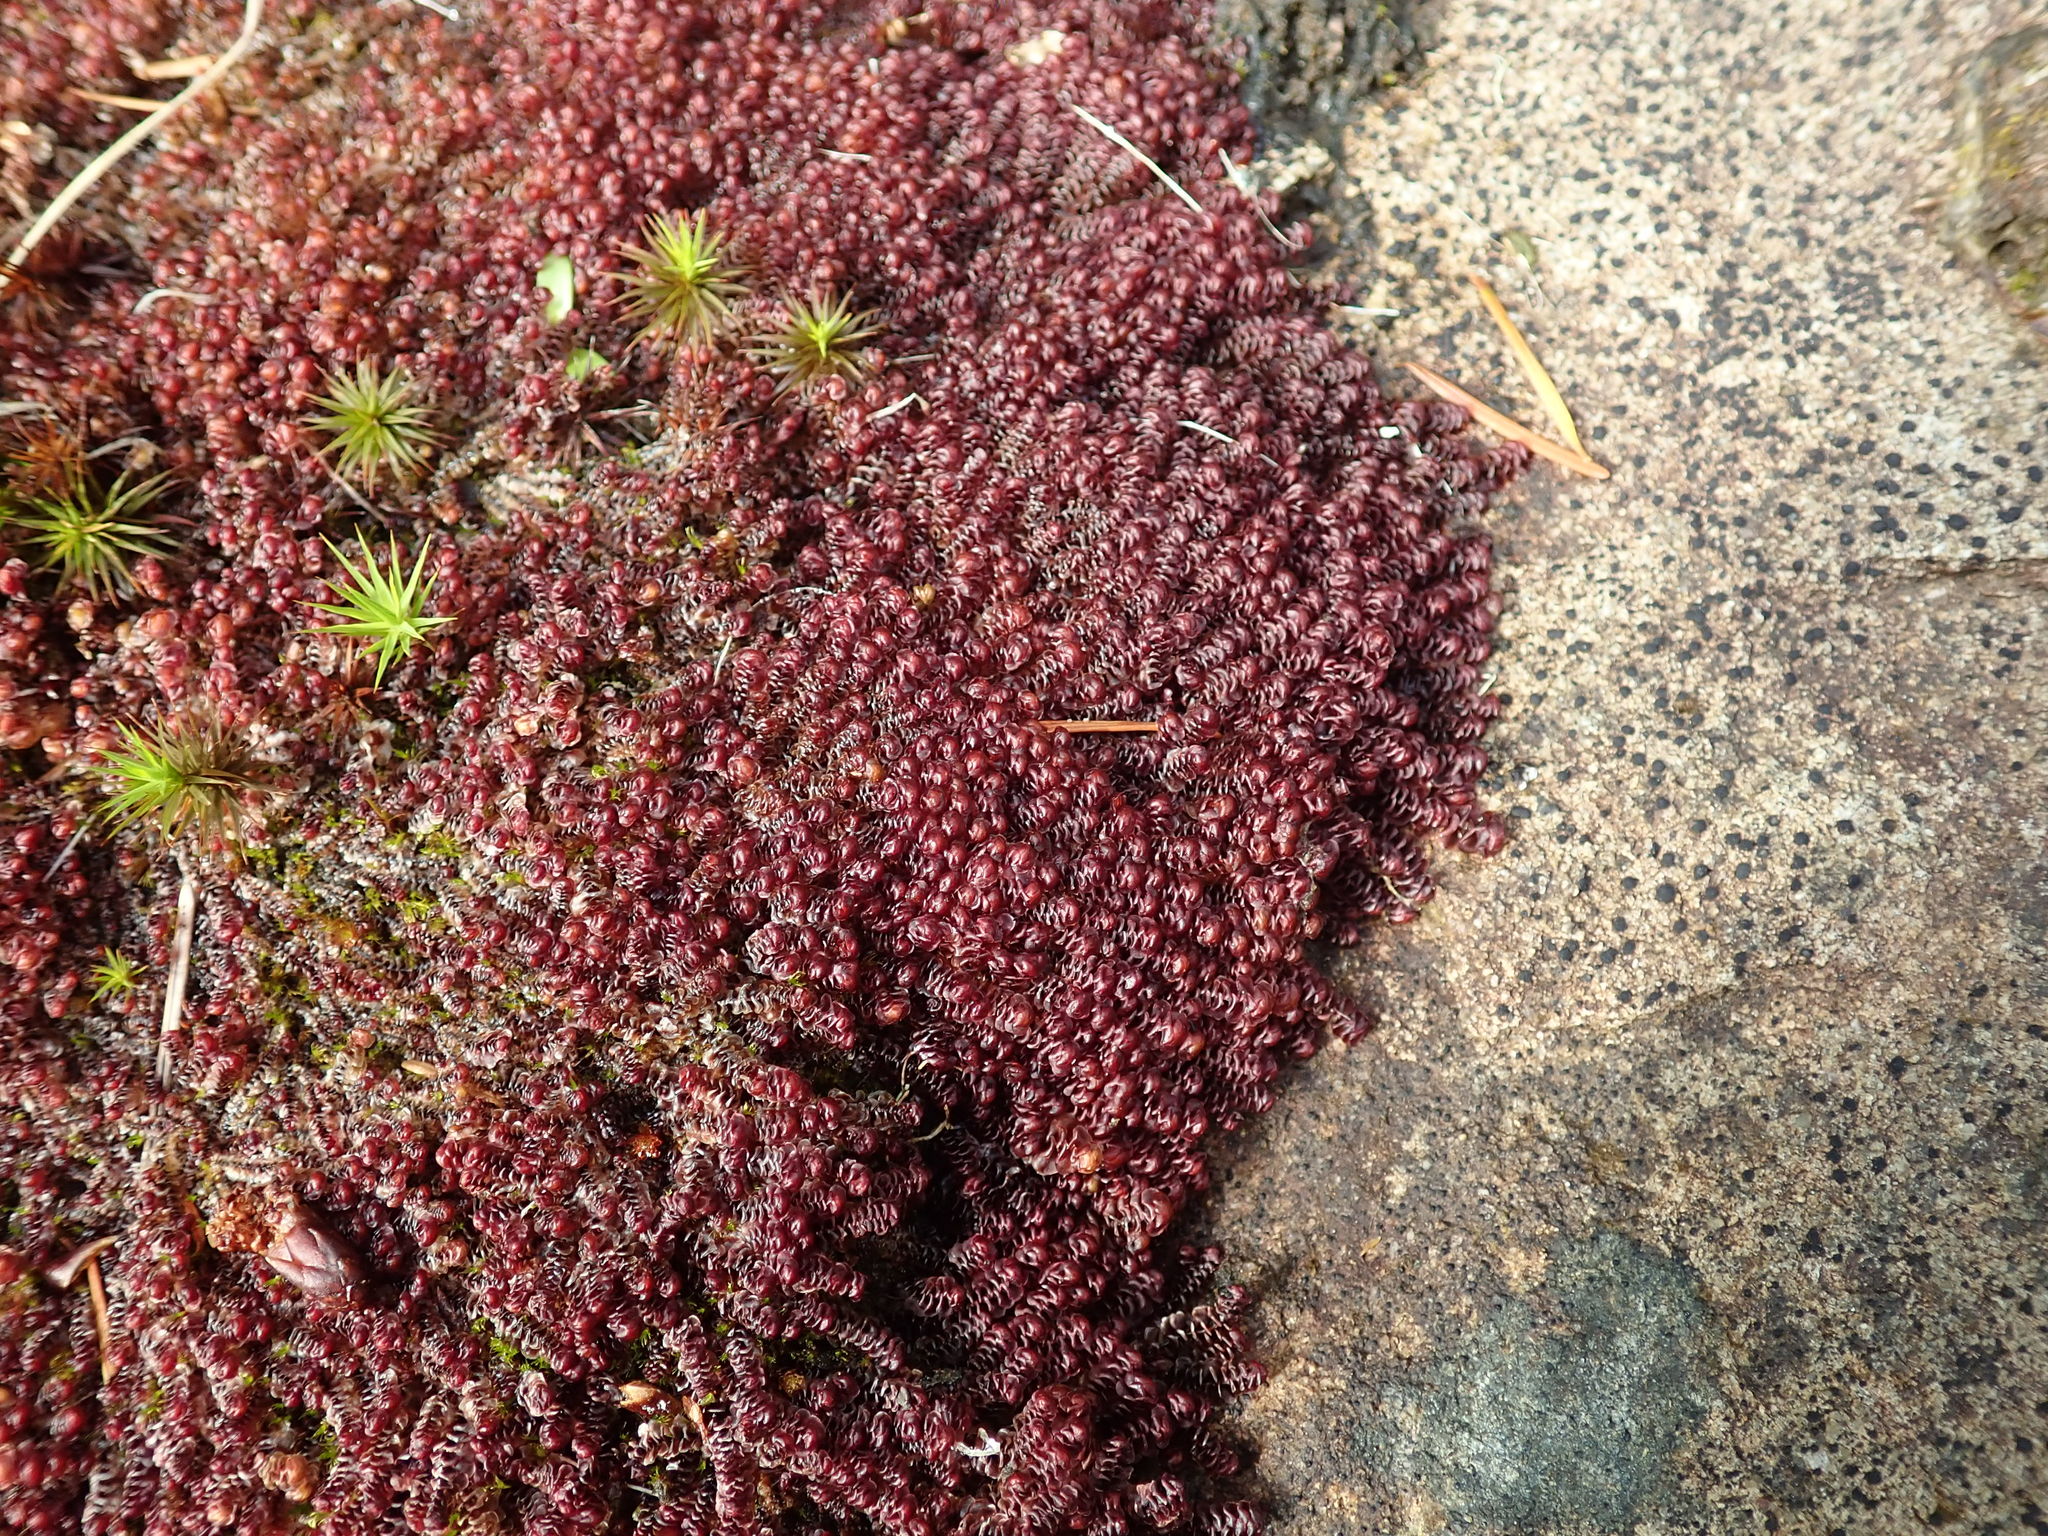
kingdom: Plantae
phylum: Marchantiophyta
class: Jungermanniopsida
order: Jungermanniales
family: Scapaniaceae
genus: Scapania
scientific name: Scapania americana
